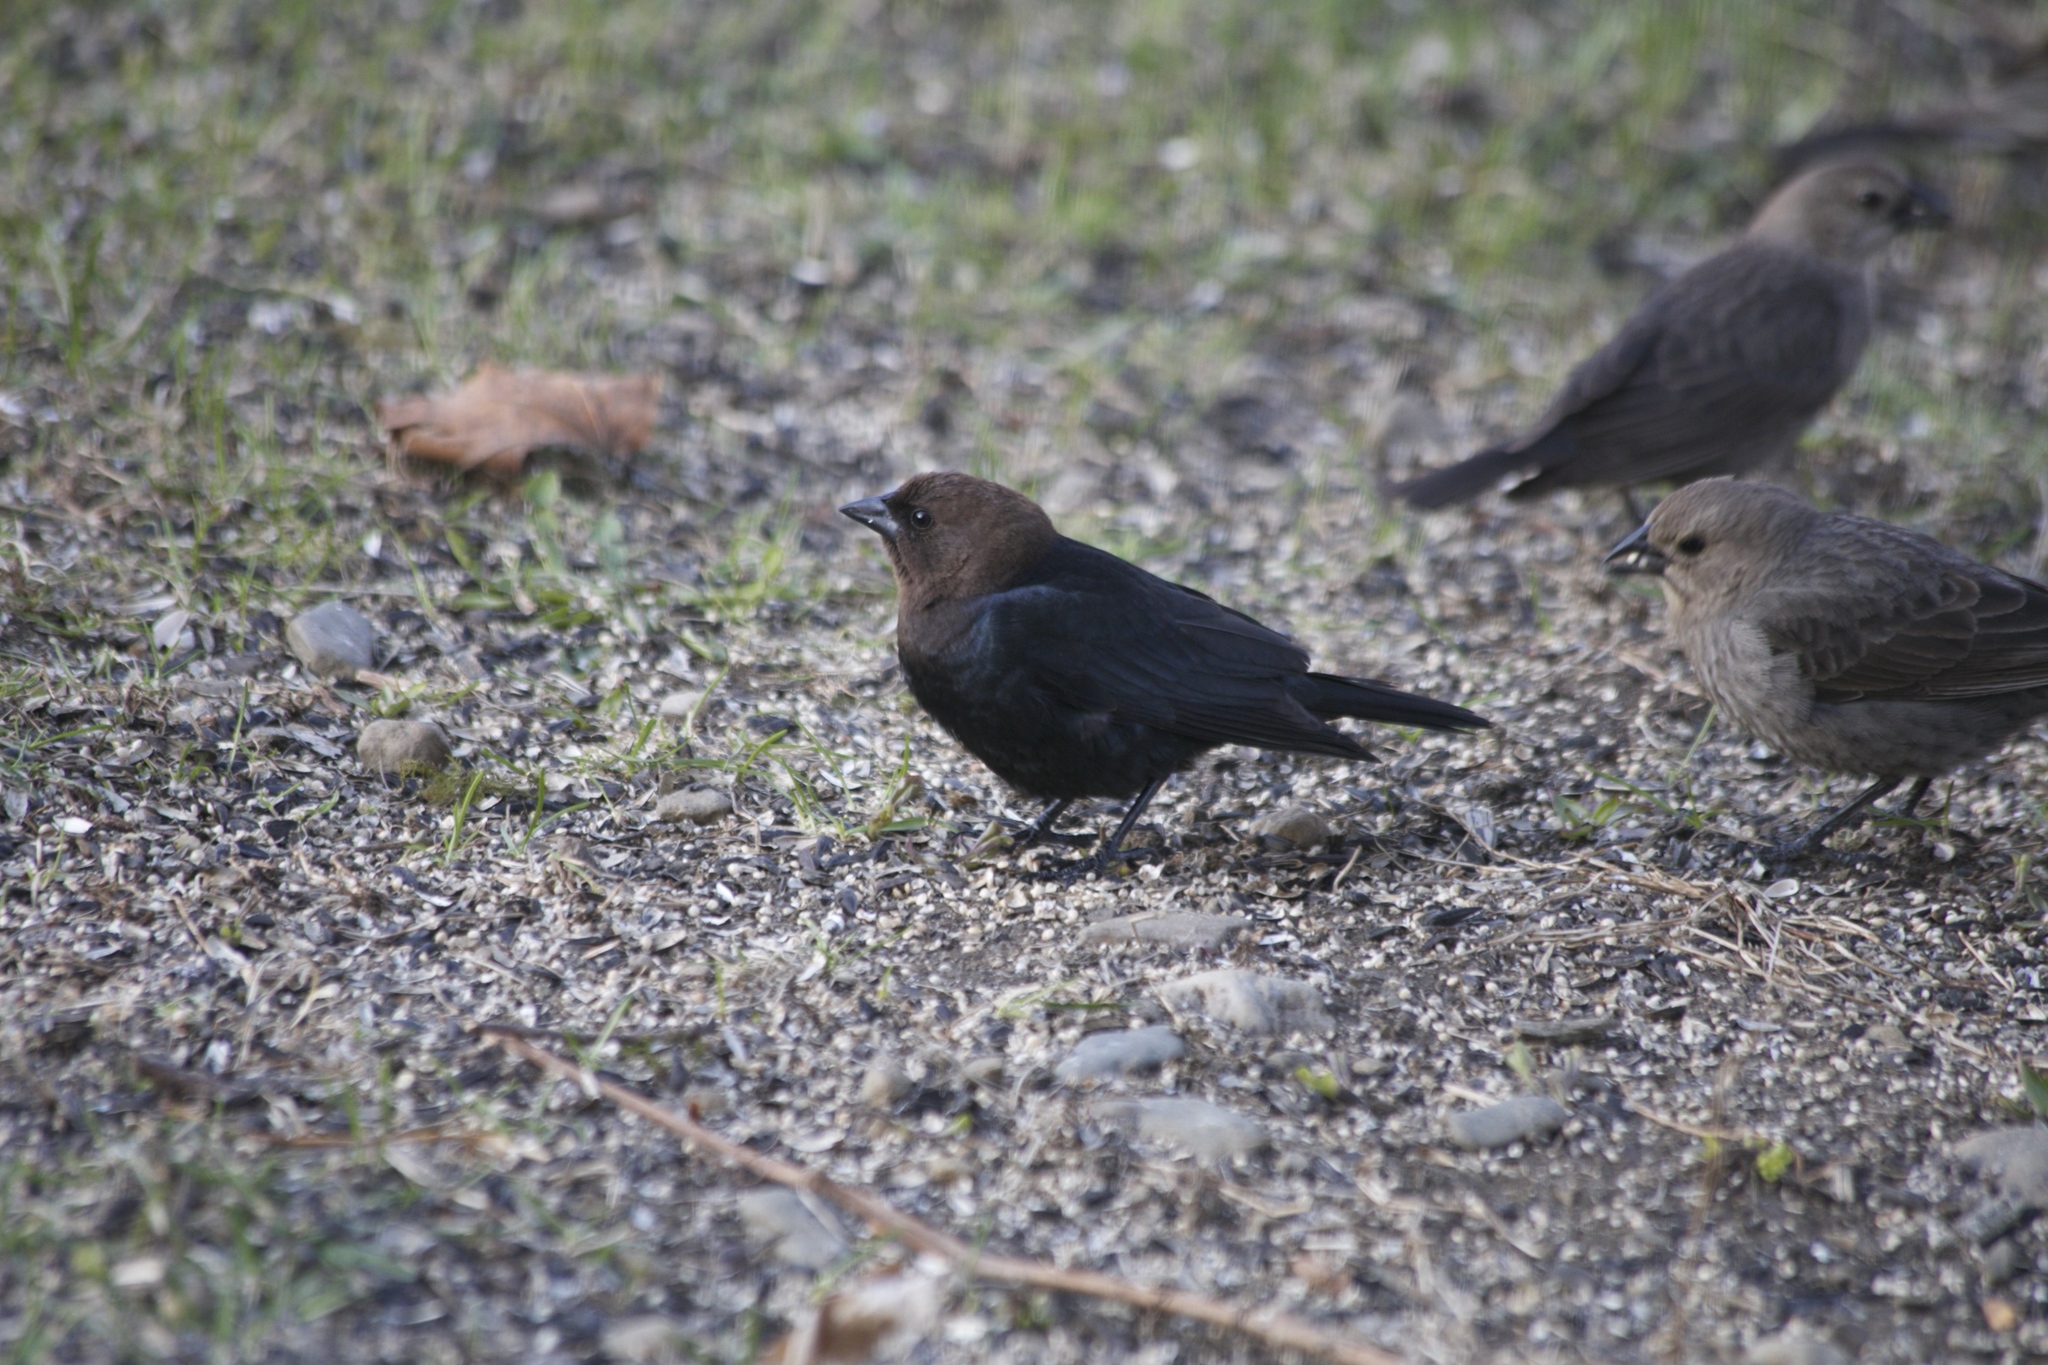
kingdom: Animalia
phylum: Chordata
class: Aves
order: Passeriformes
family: Icteridae
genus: Molothrus
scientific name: Molothrus ater
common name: Brown-headed cowbird
